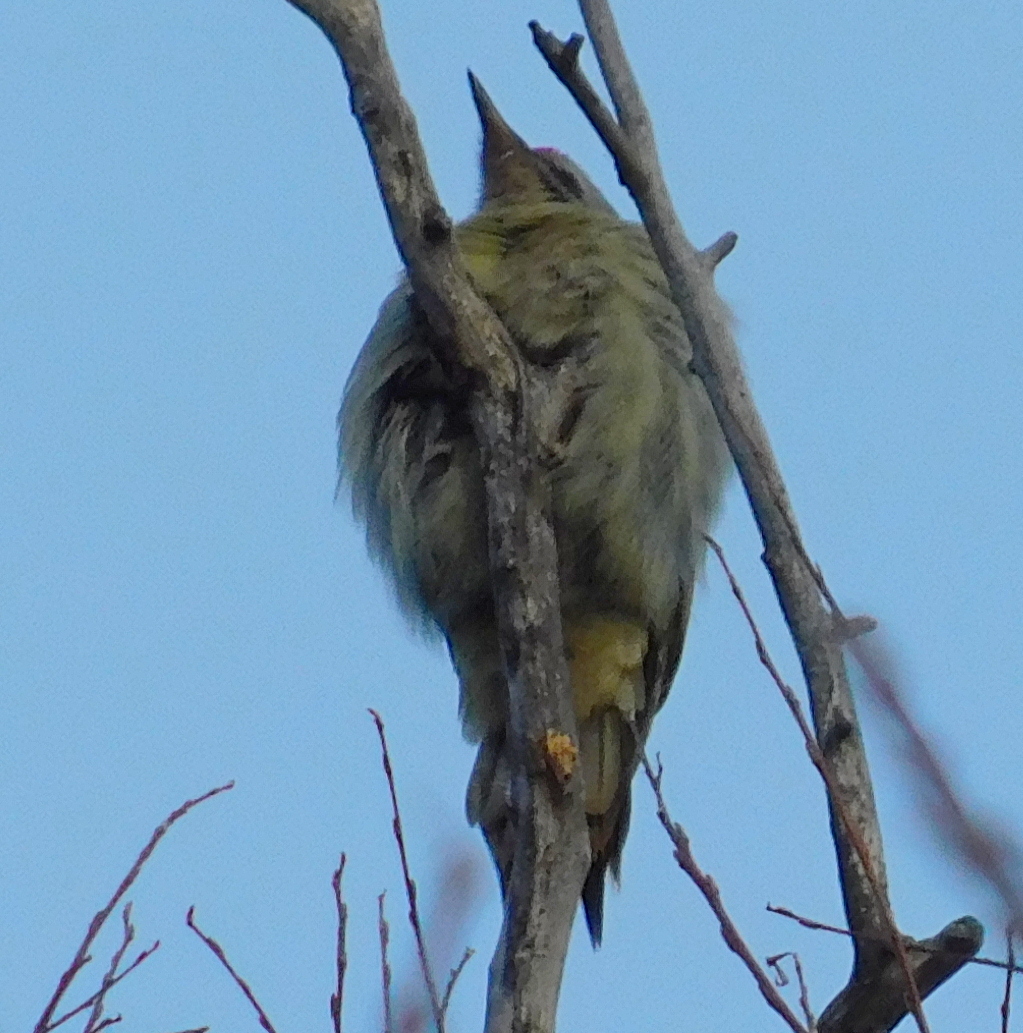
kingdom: Animalia
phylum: Chordata
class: Aves
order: Piciformes
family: Picidae
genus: Picus
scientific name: Picus canus
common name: Grey-headed woodpecker
